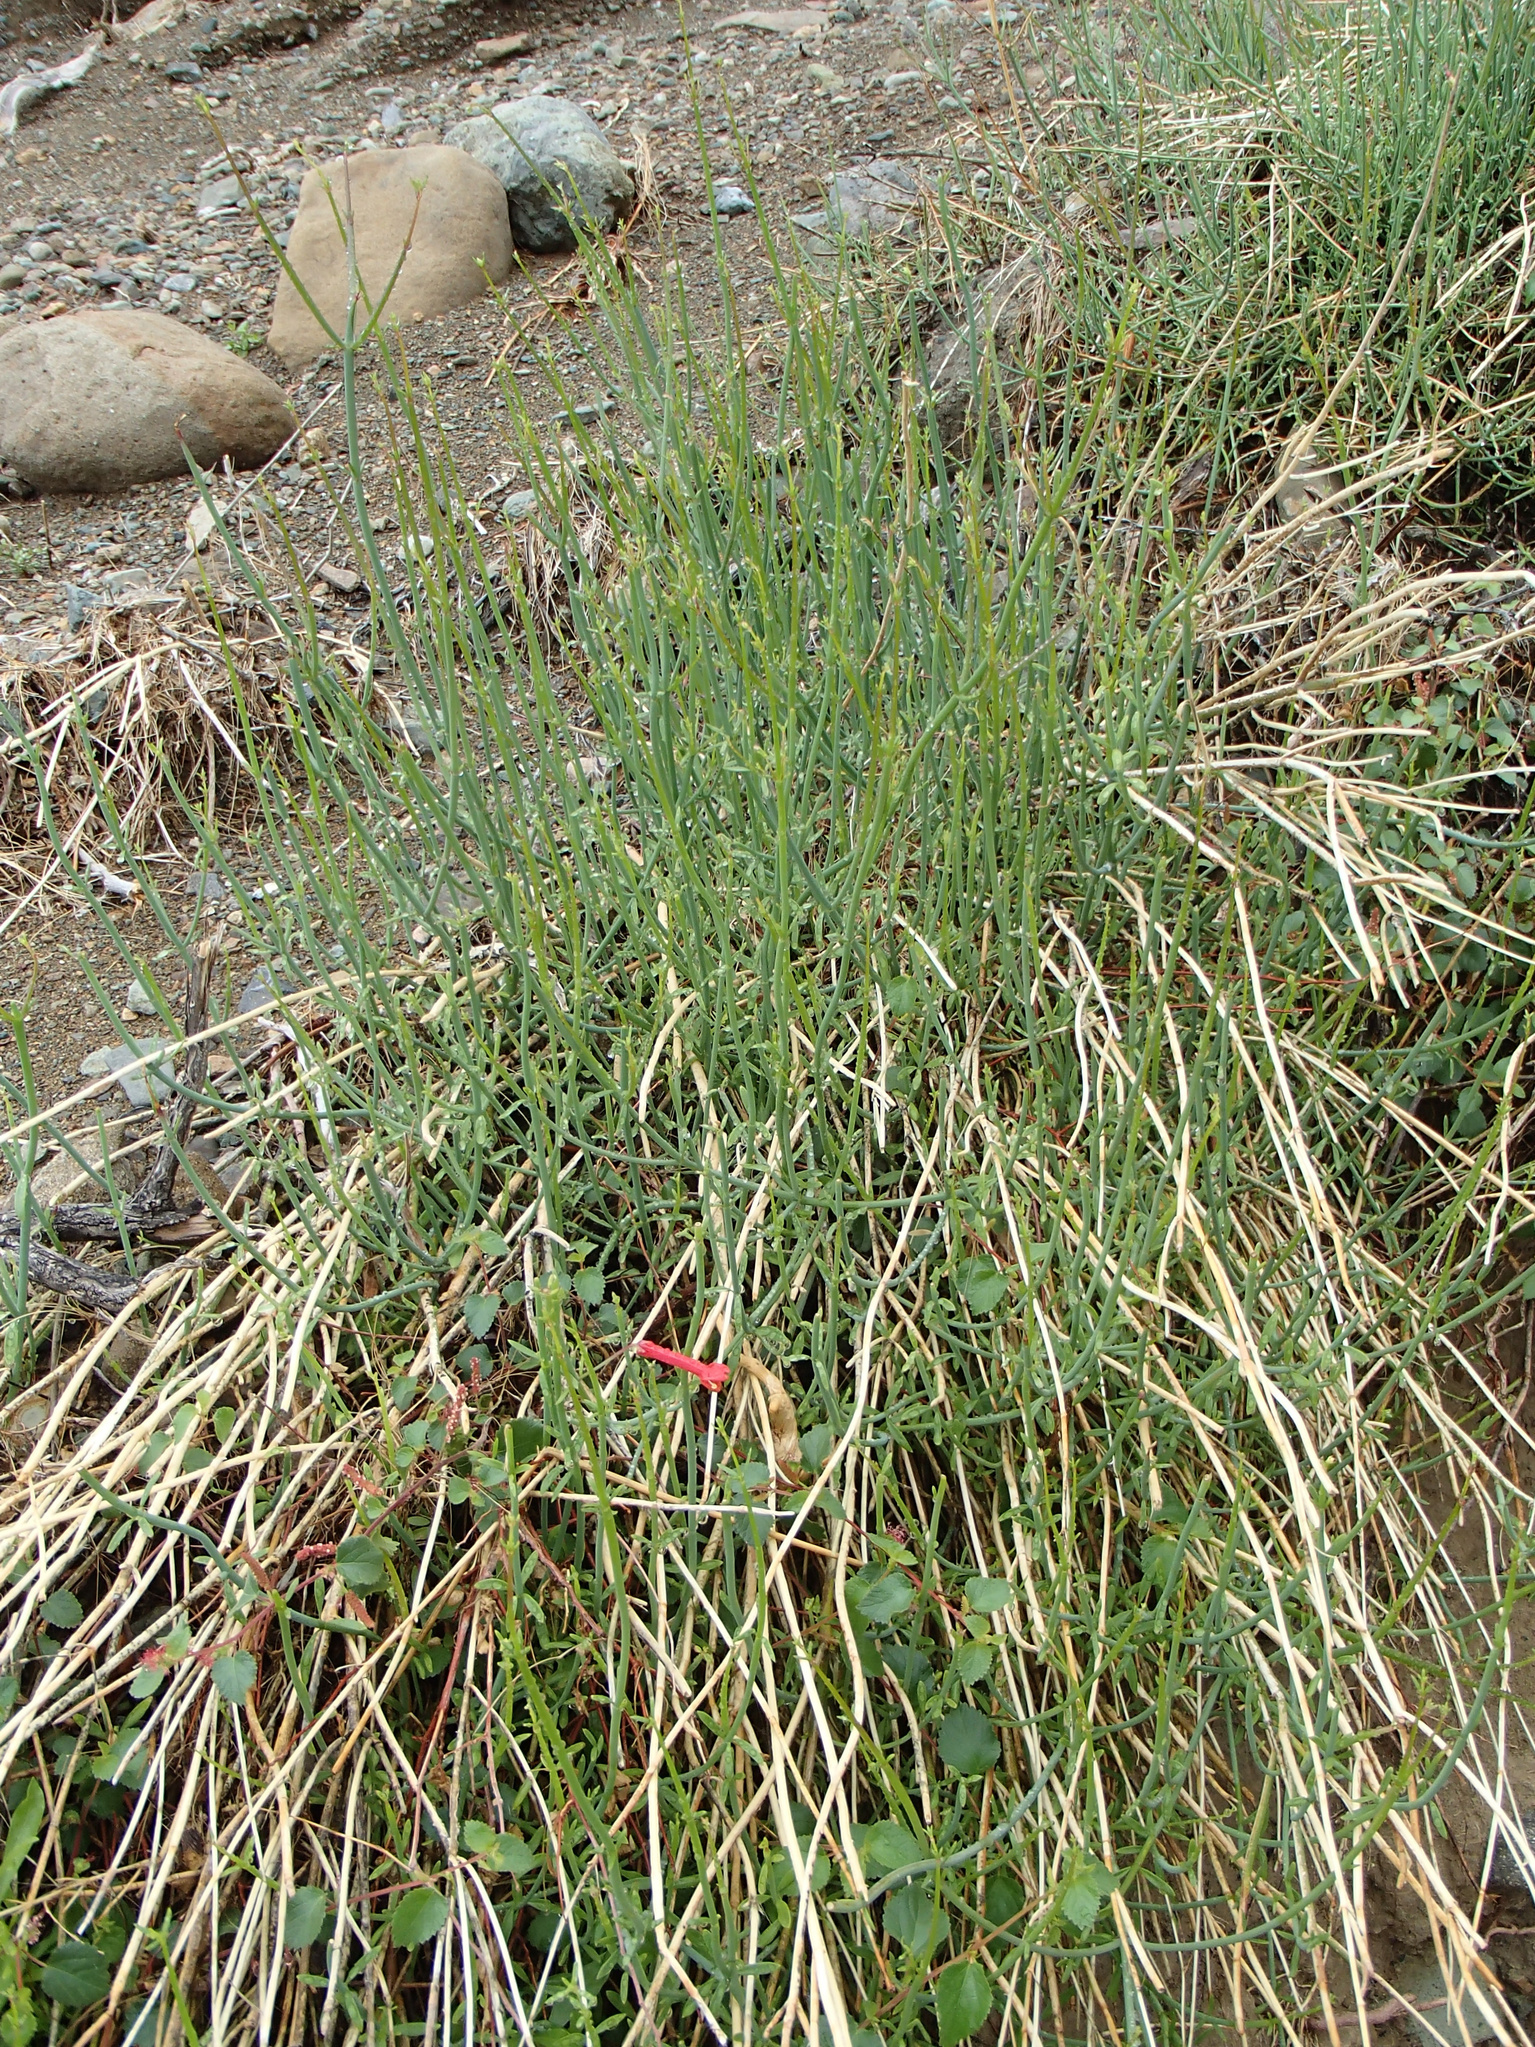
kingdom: Plantae
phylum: Tracheophyta
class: Magnoliopsida
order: Lamiales
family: Plantaginaceae
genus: Gambelia
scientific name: Gambelia juncea
